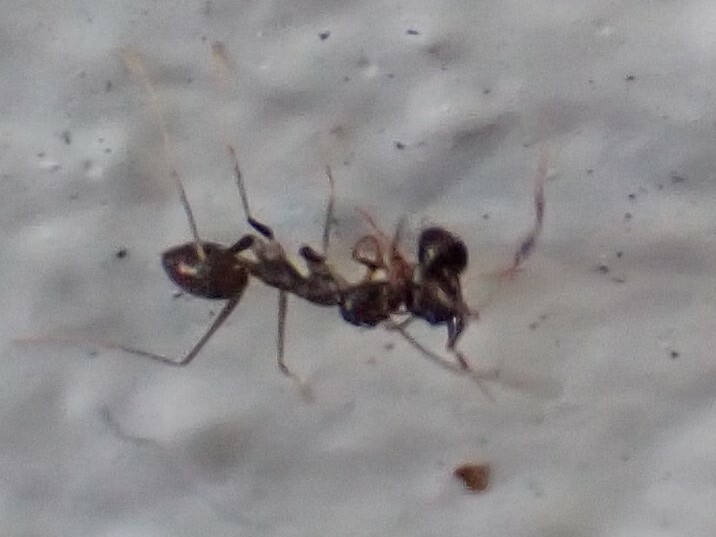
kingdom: Animalia
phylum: Arthropoda
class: Insecta
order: Hymenoptera
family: Formicidae
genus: Paratrechina
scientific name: Paratrechina longicornis
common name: Longhorned crazy ant
